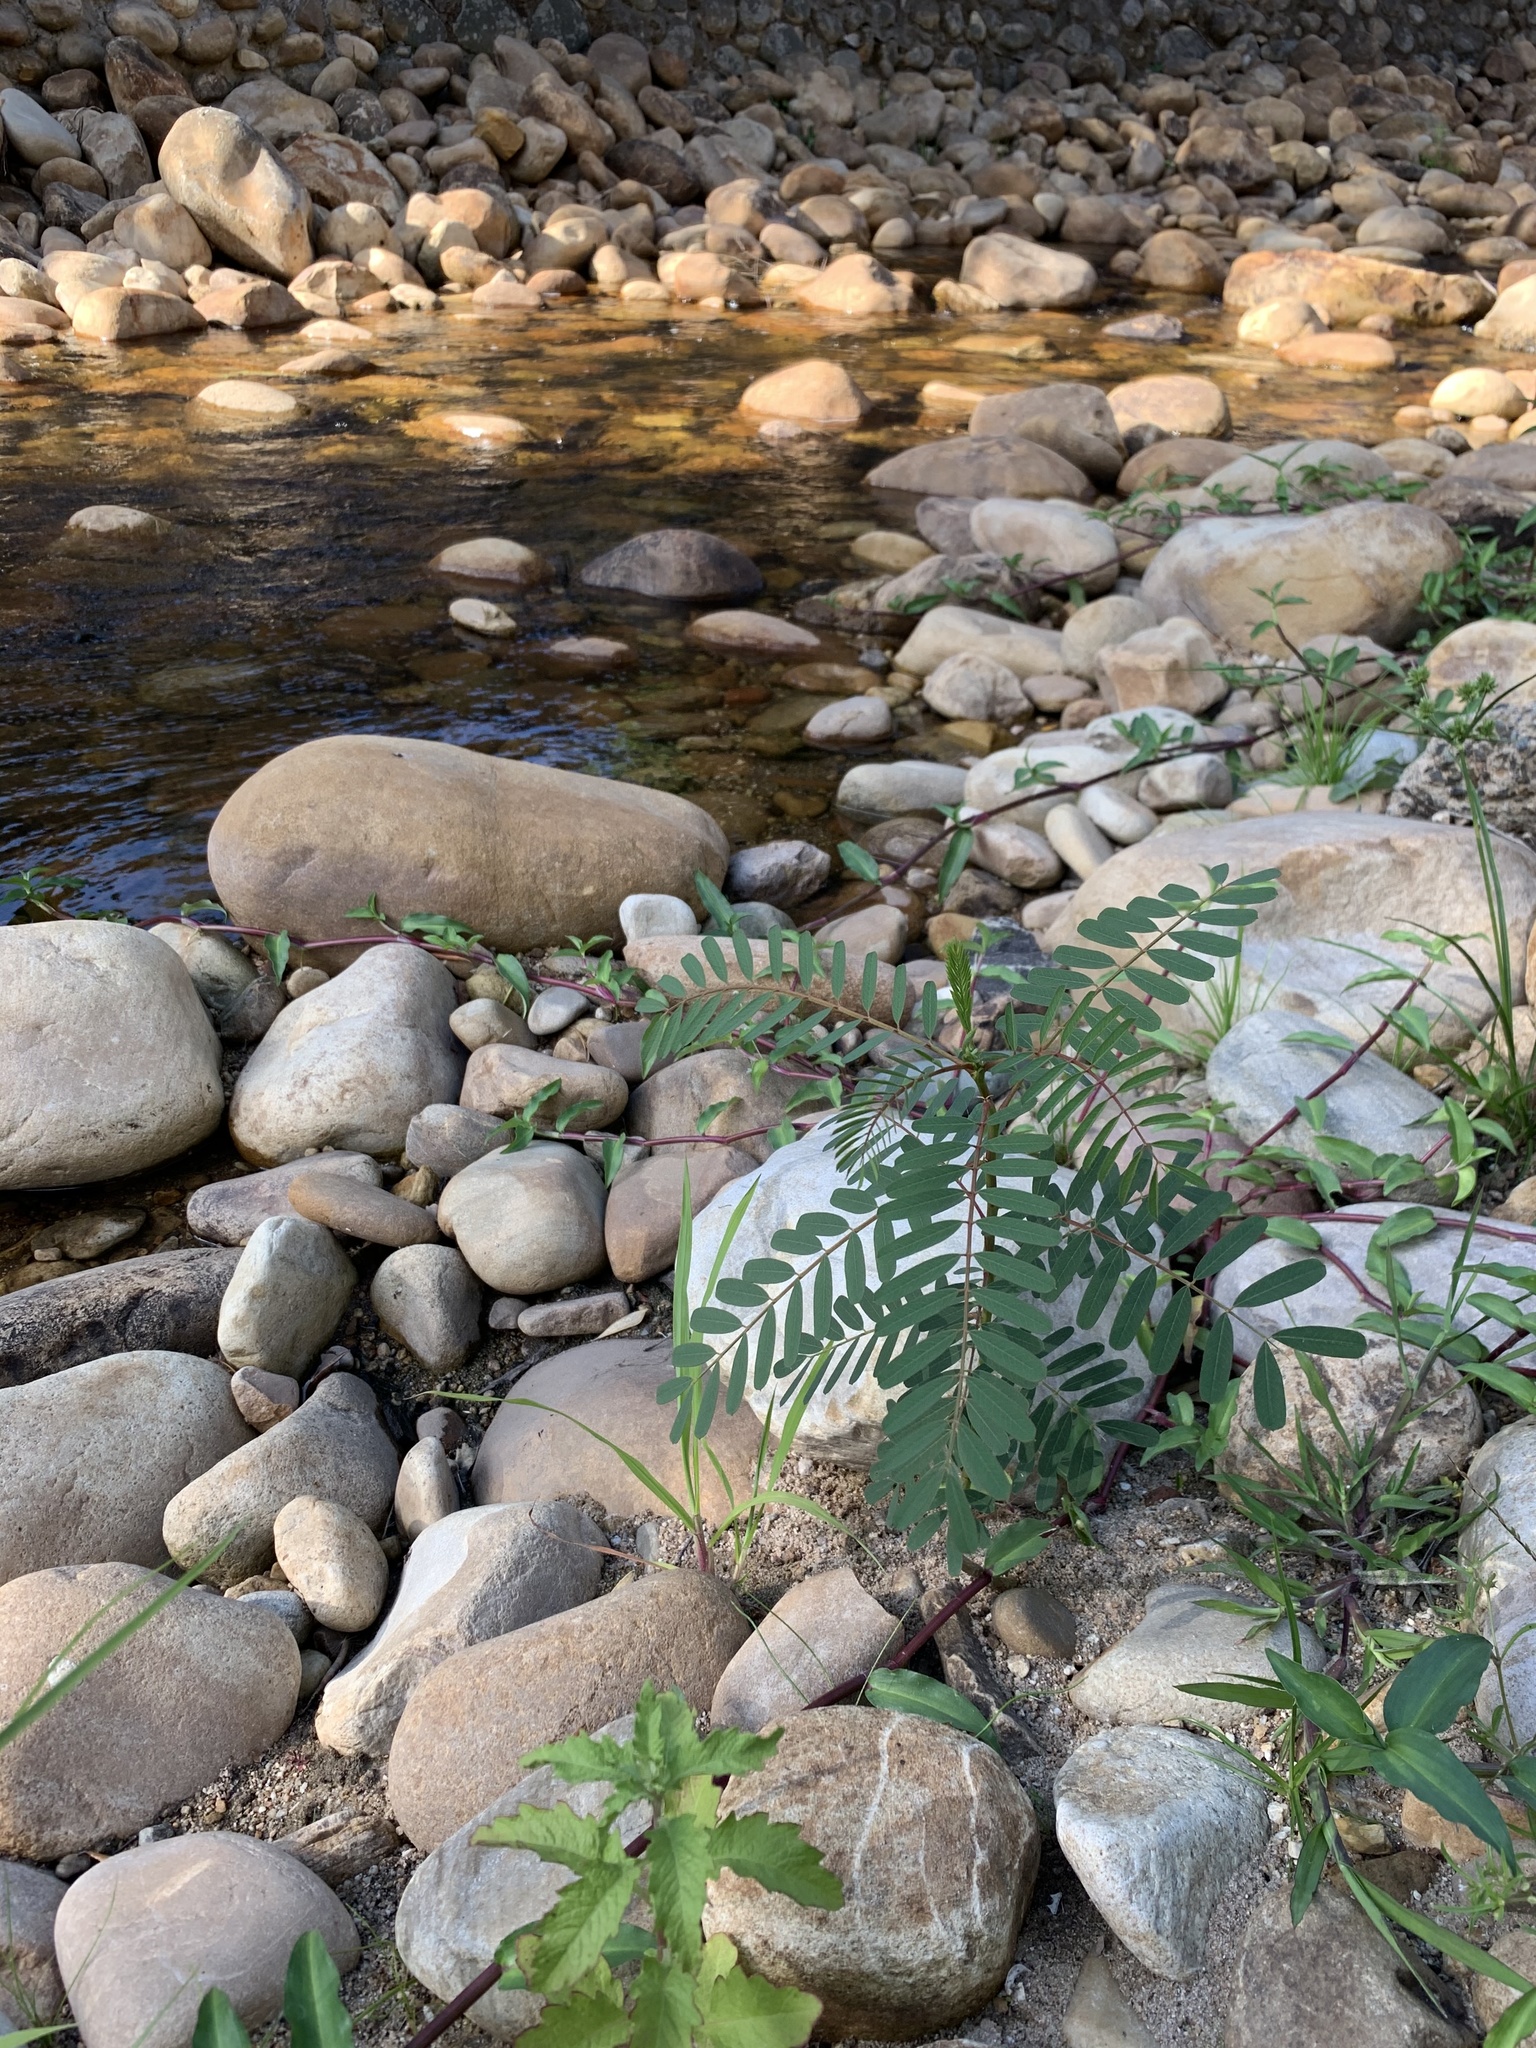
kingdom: Plantae
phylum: Tracheophyta
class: Magnoliopsida
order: Fabales
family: Fabaceae
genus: Sesbania
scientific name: Sesbania punicea
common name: Rattlebox
